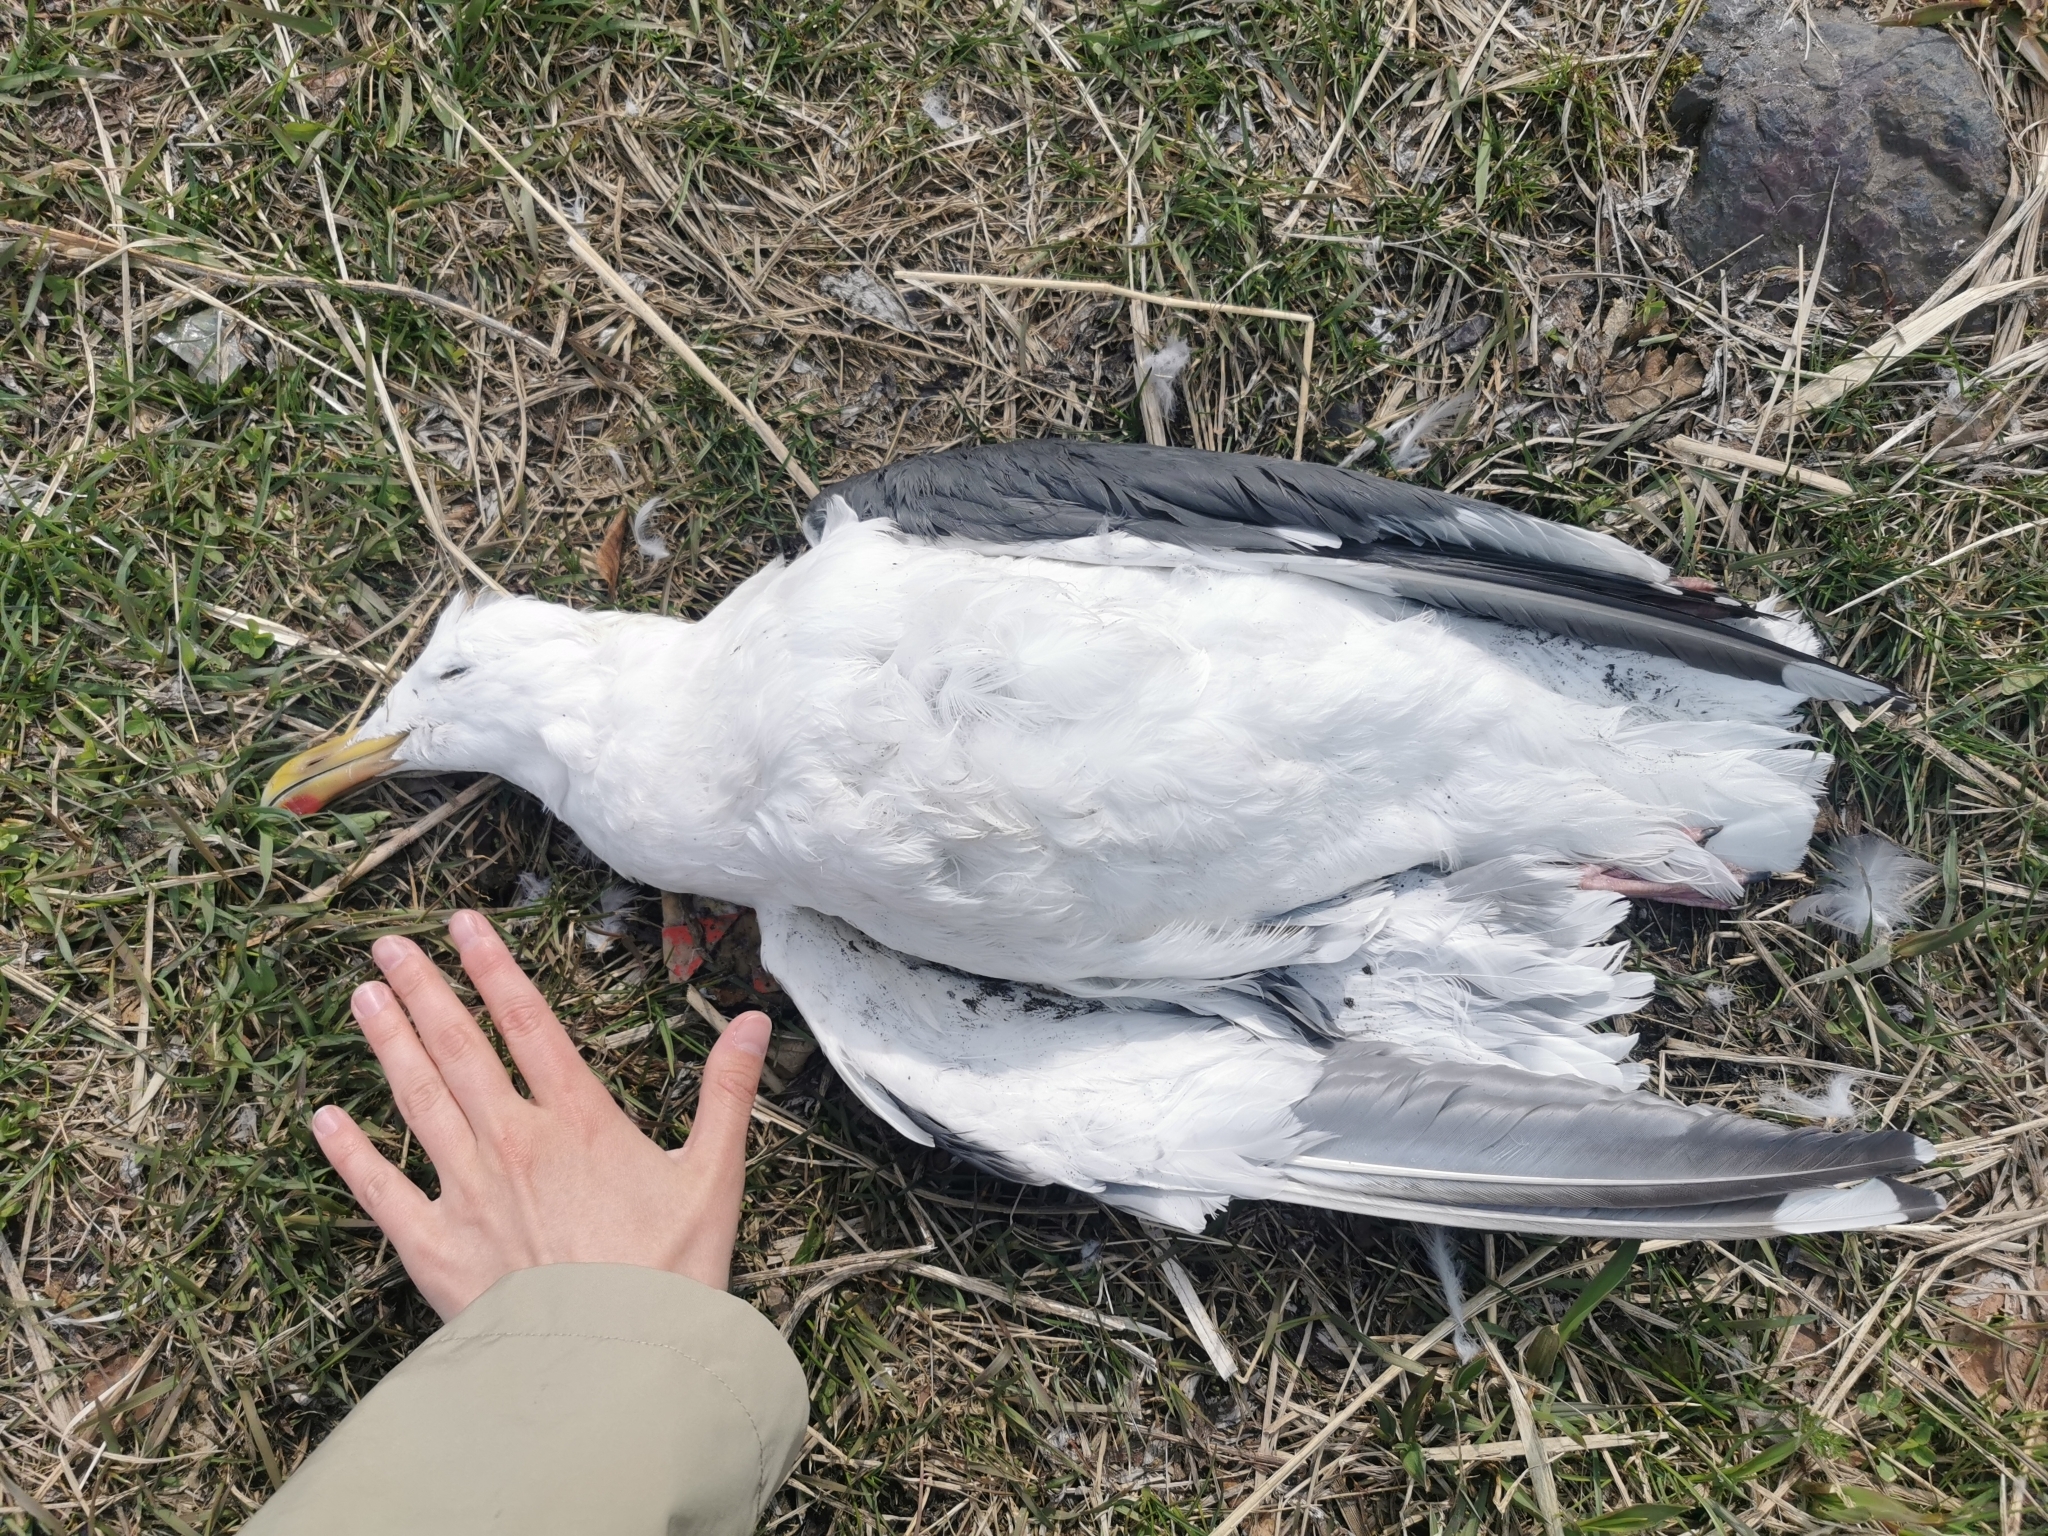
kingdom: Animalia
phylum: Chordata
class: Aves
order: Charadriiformes
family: Laridae
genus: Larus
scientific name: Larus schistisagus
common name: Slaty-backed gull
